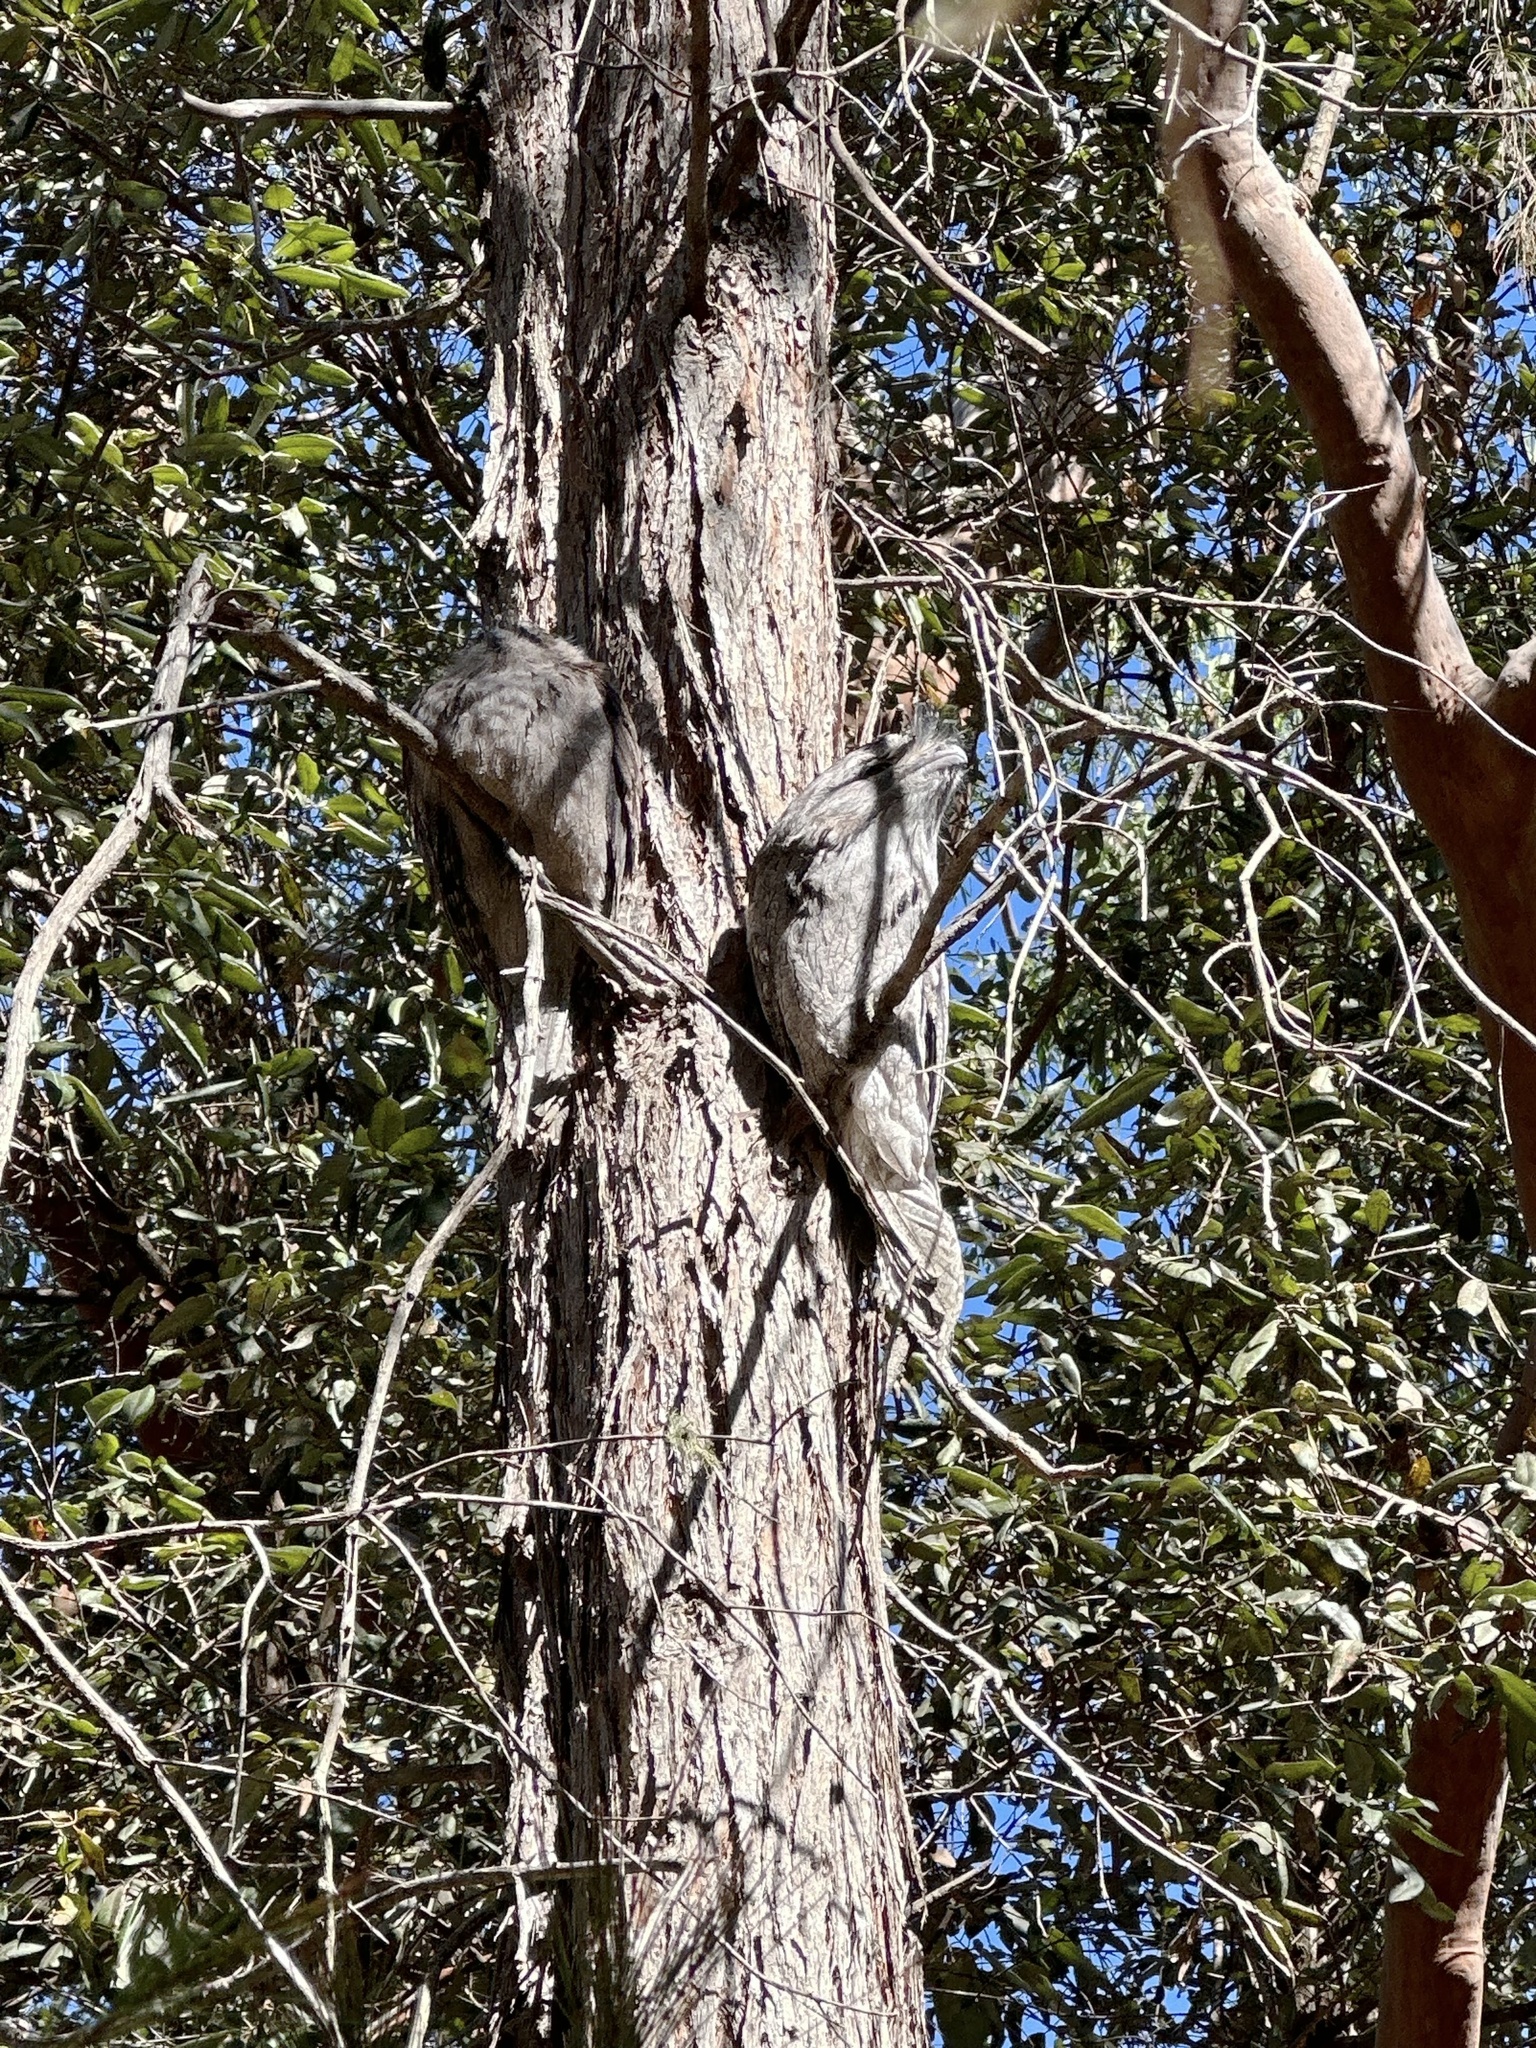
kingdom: Animalia
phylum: Chordata
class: Aves
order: Caprimulgiformes
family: Podargidae
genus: Podargus
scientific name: Podargus strigoides
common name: Tawny frogmouth
